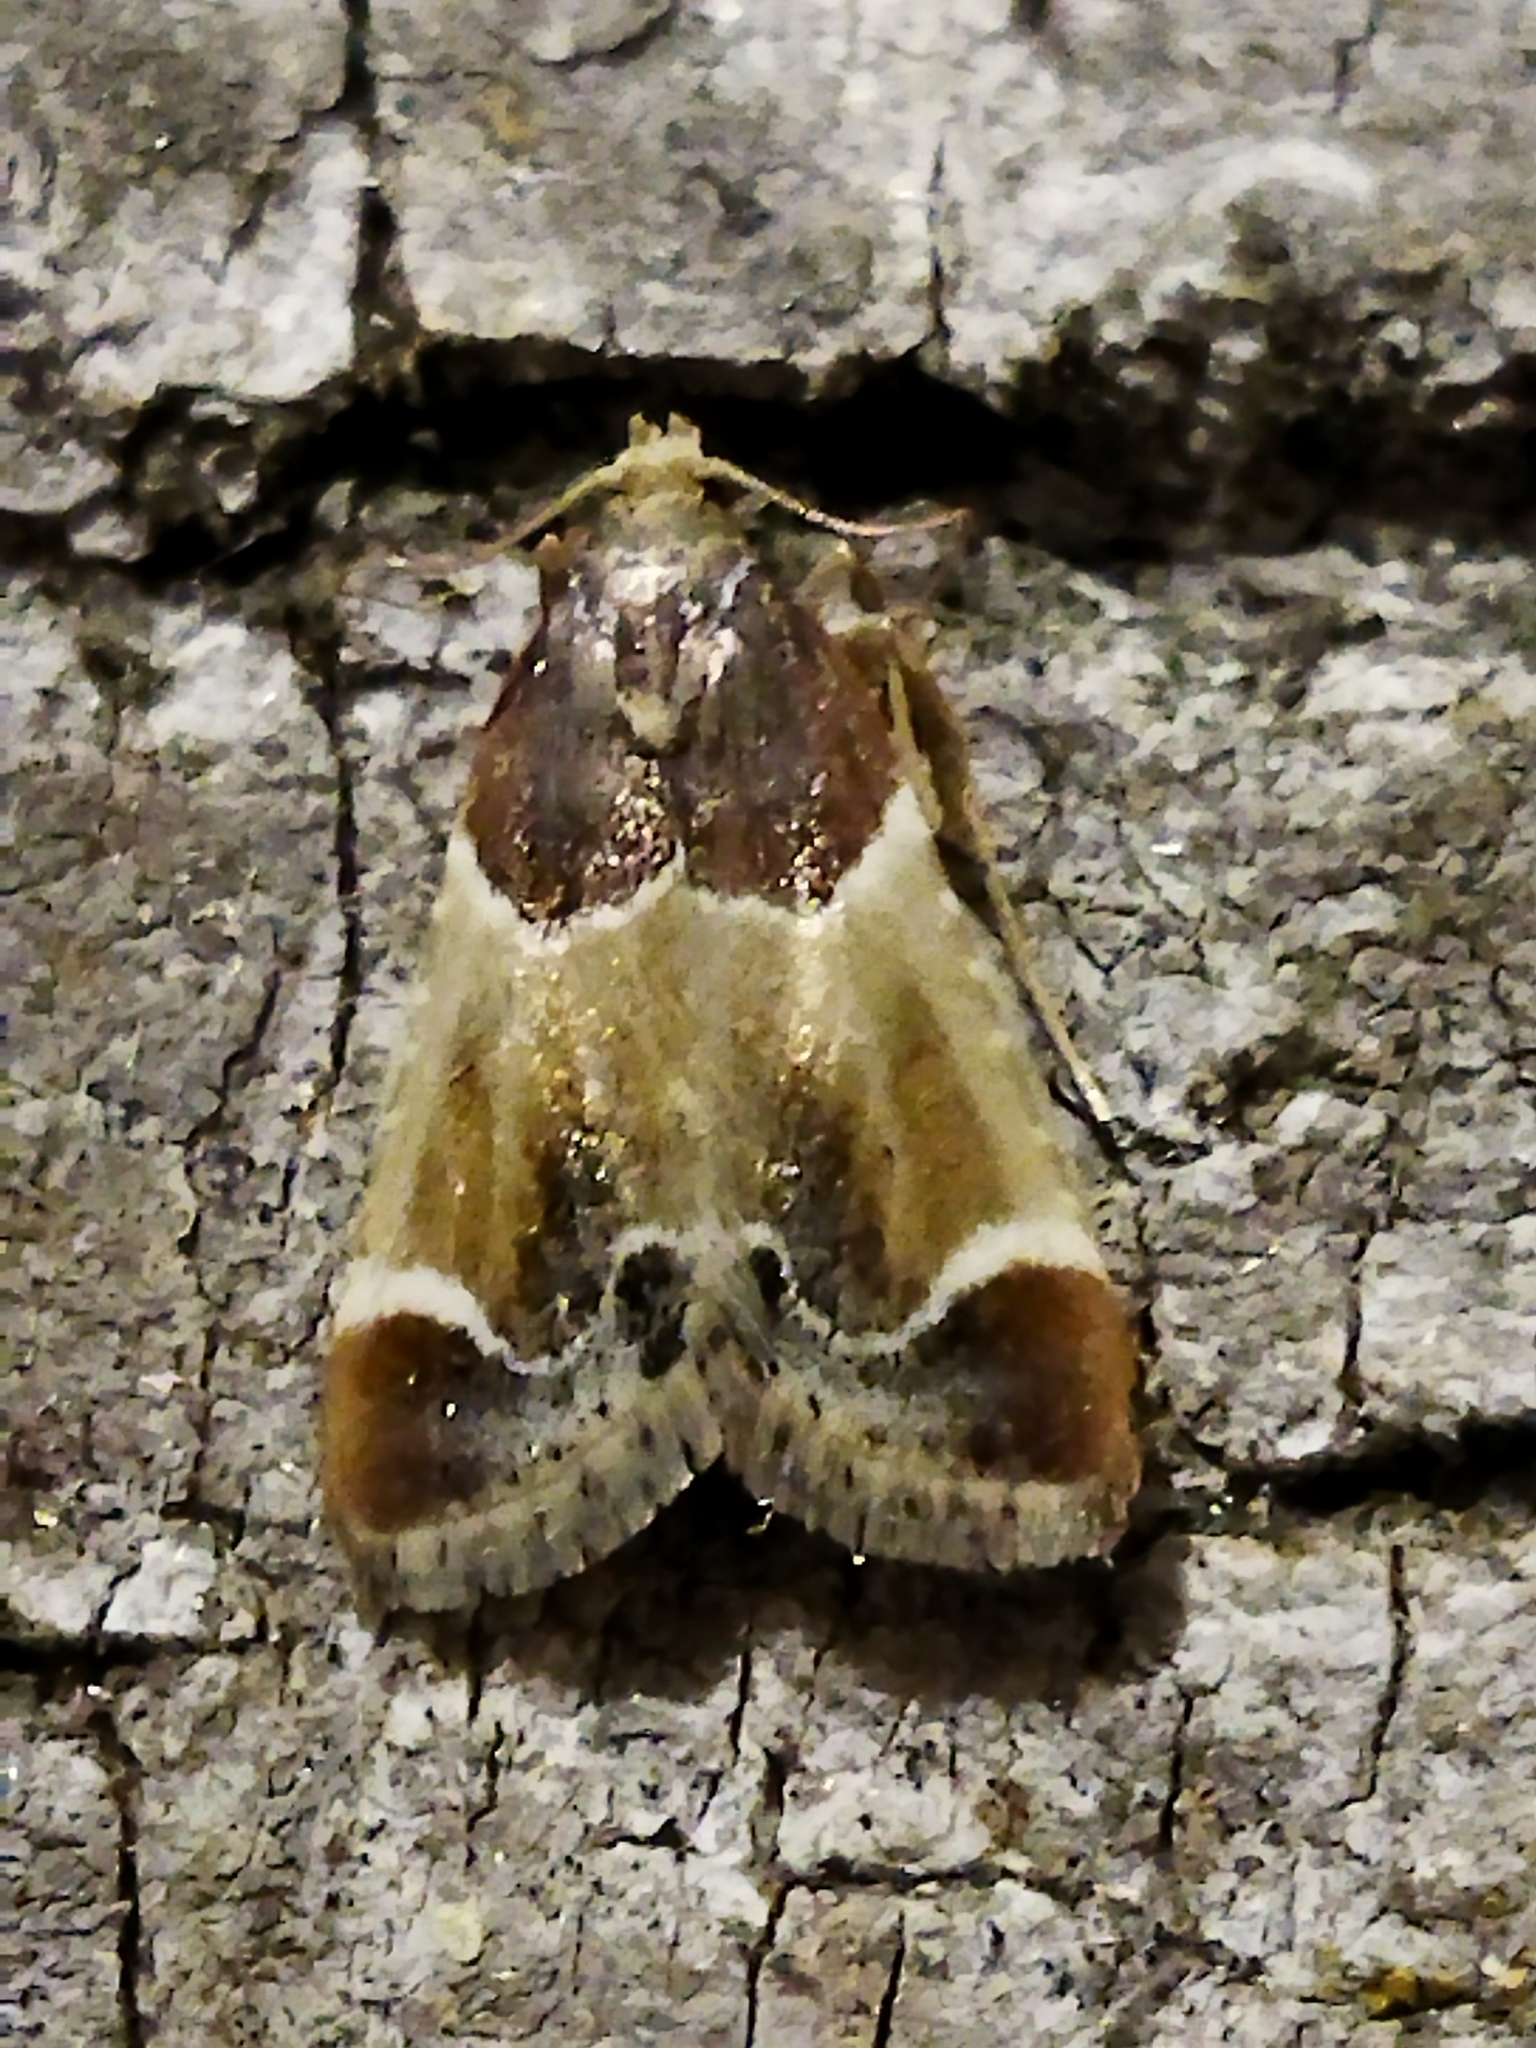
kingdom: Animalia
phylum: Arthropoda
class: Insecta
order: Lepidoptera
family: Pyralidae
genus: Pyralis
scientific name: Pyralis farinalis
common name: Meal moth
